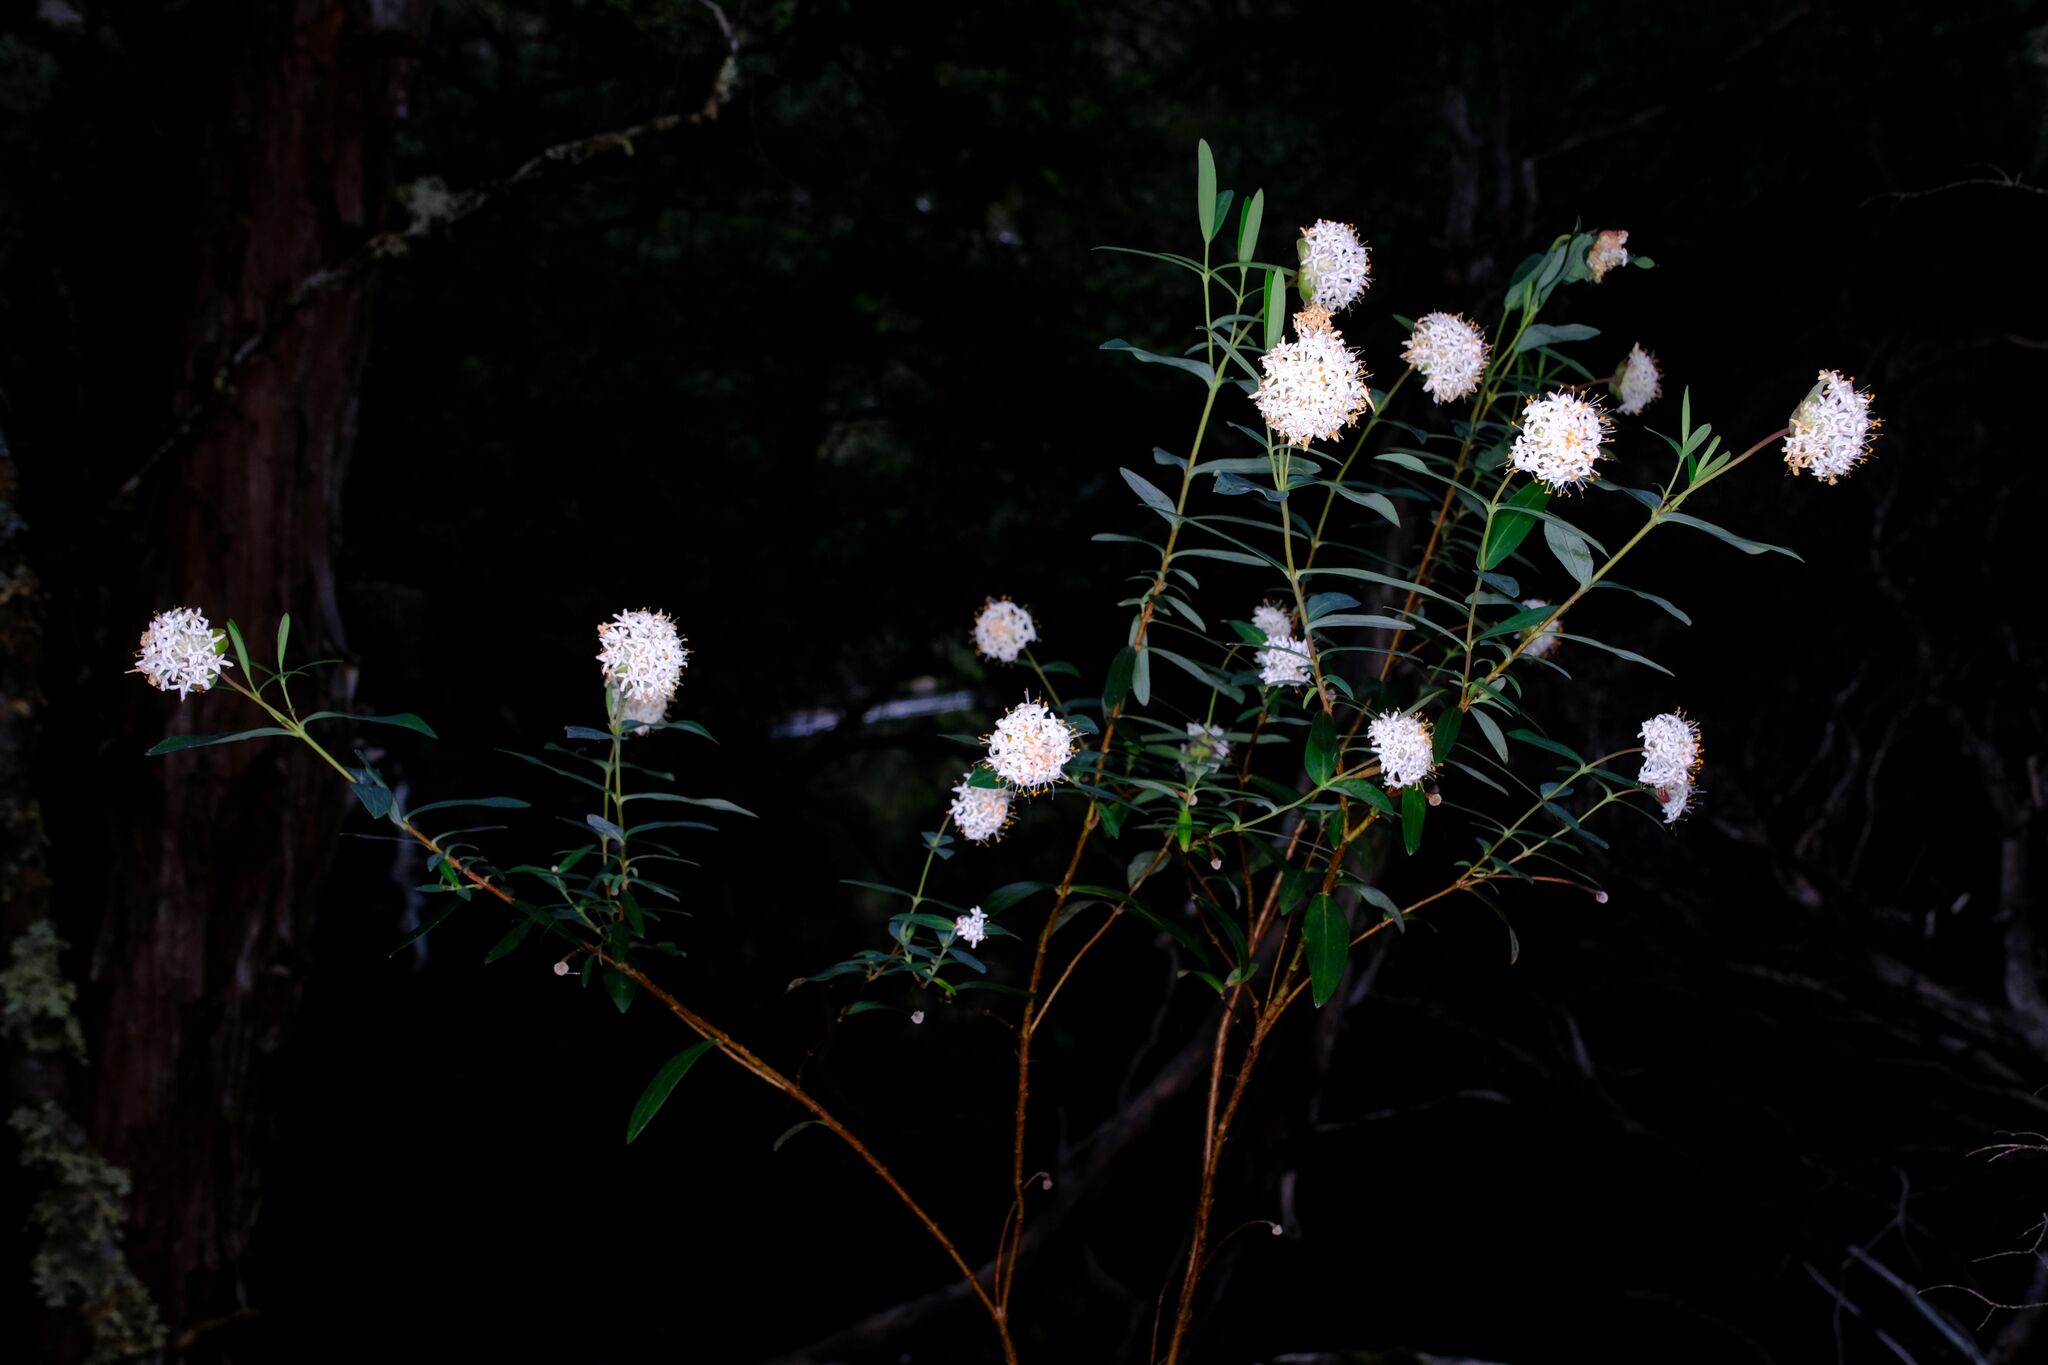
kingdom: Plantae
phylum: Tracheophyta
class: Magnoliopsida
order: Malvales
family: Thymelaeaceae
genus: Pimelea
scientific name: Pimelea ligustrina
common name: Tall riceflower
